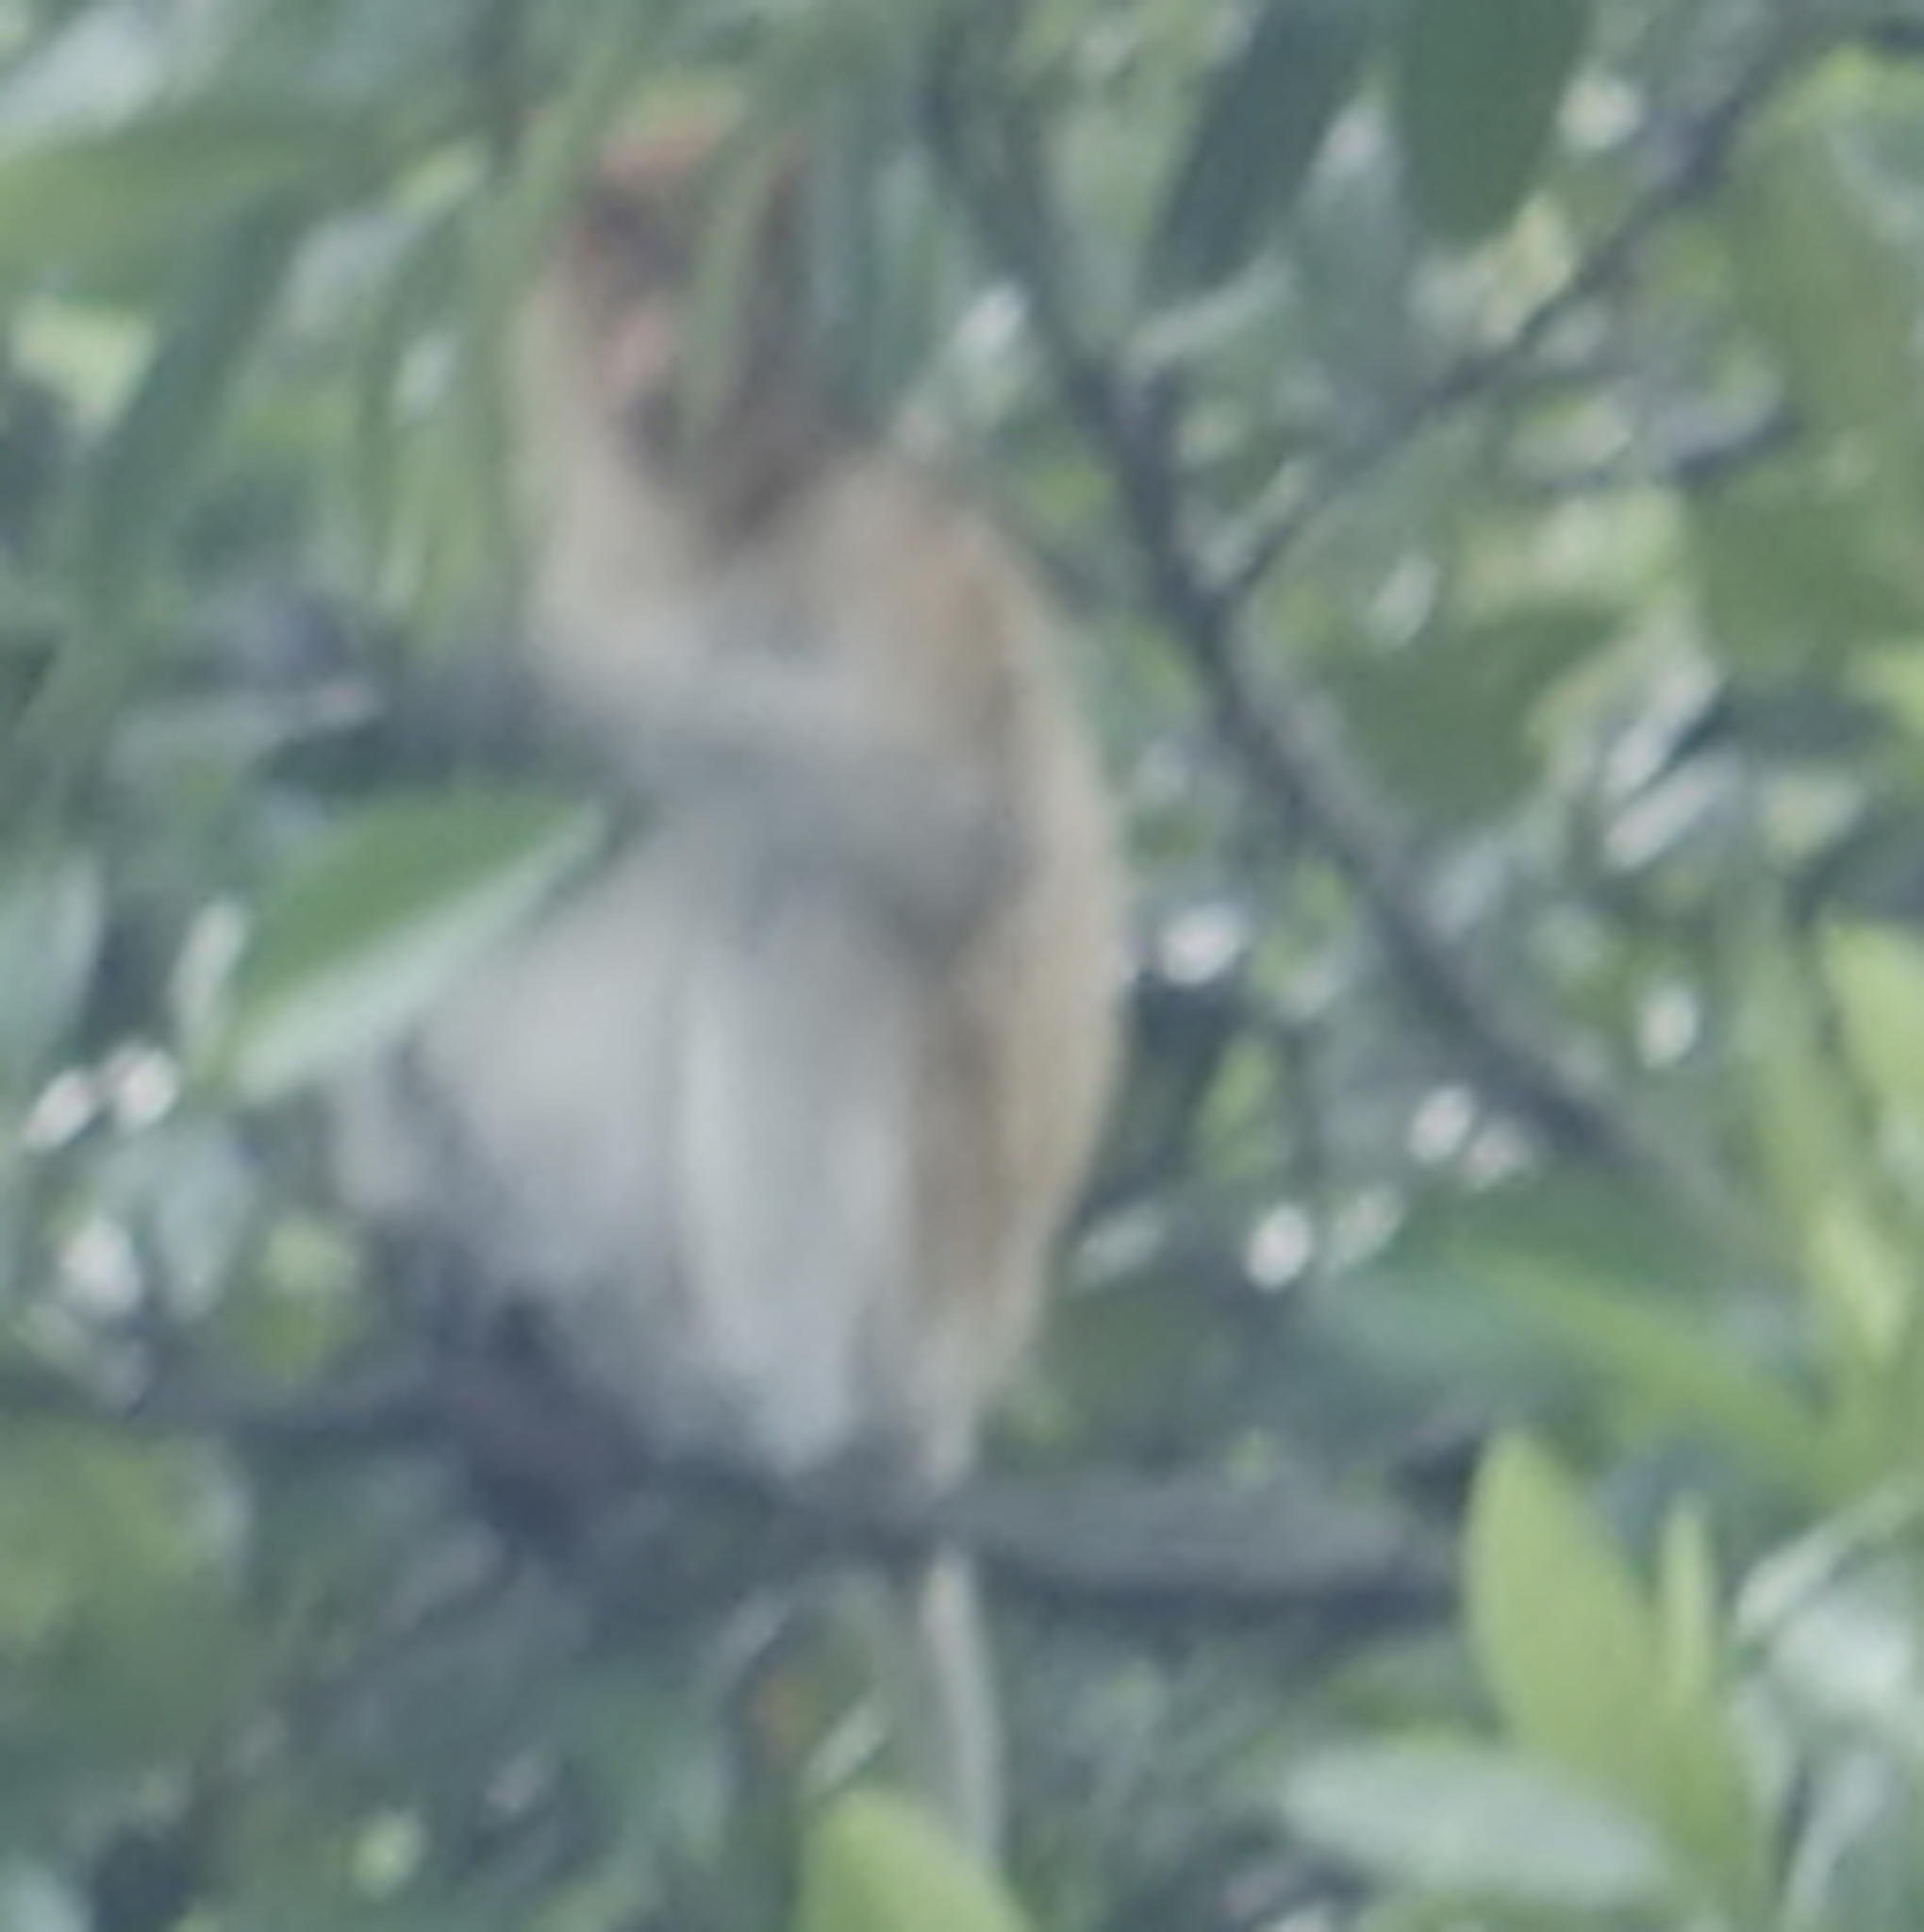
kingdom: Animalia
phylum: Chordata
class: Mammalia
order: Primates
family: Cercopithecidae
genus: Nasalis
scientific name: Nasalis larvatus
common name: Proboscis monkey
